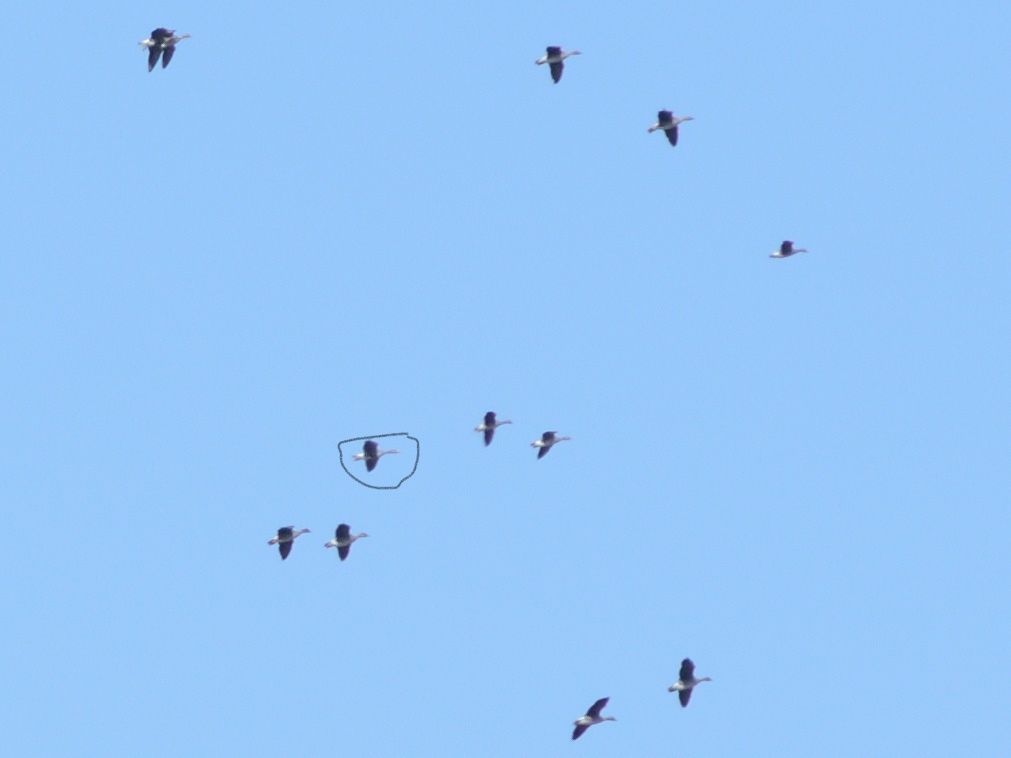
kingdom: Animalia
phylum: Chordata
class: Aves
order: Anseriformes
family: Anatidae
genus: Anser
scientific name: Anser albifrons
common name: Greater white-fronted goose
